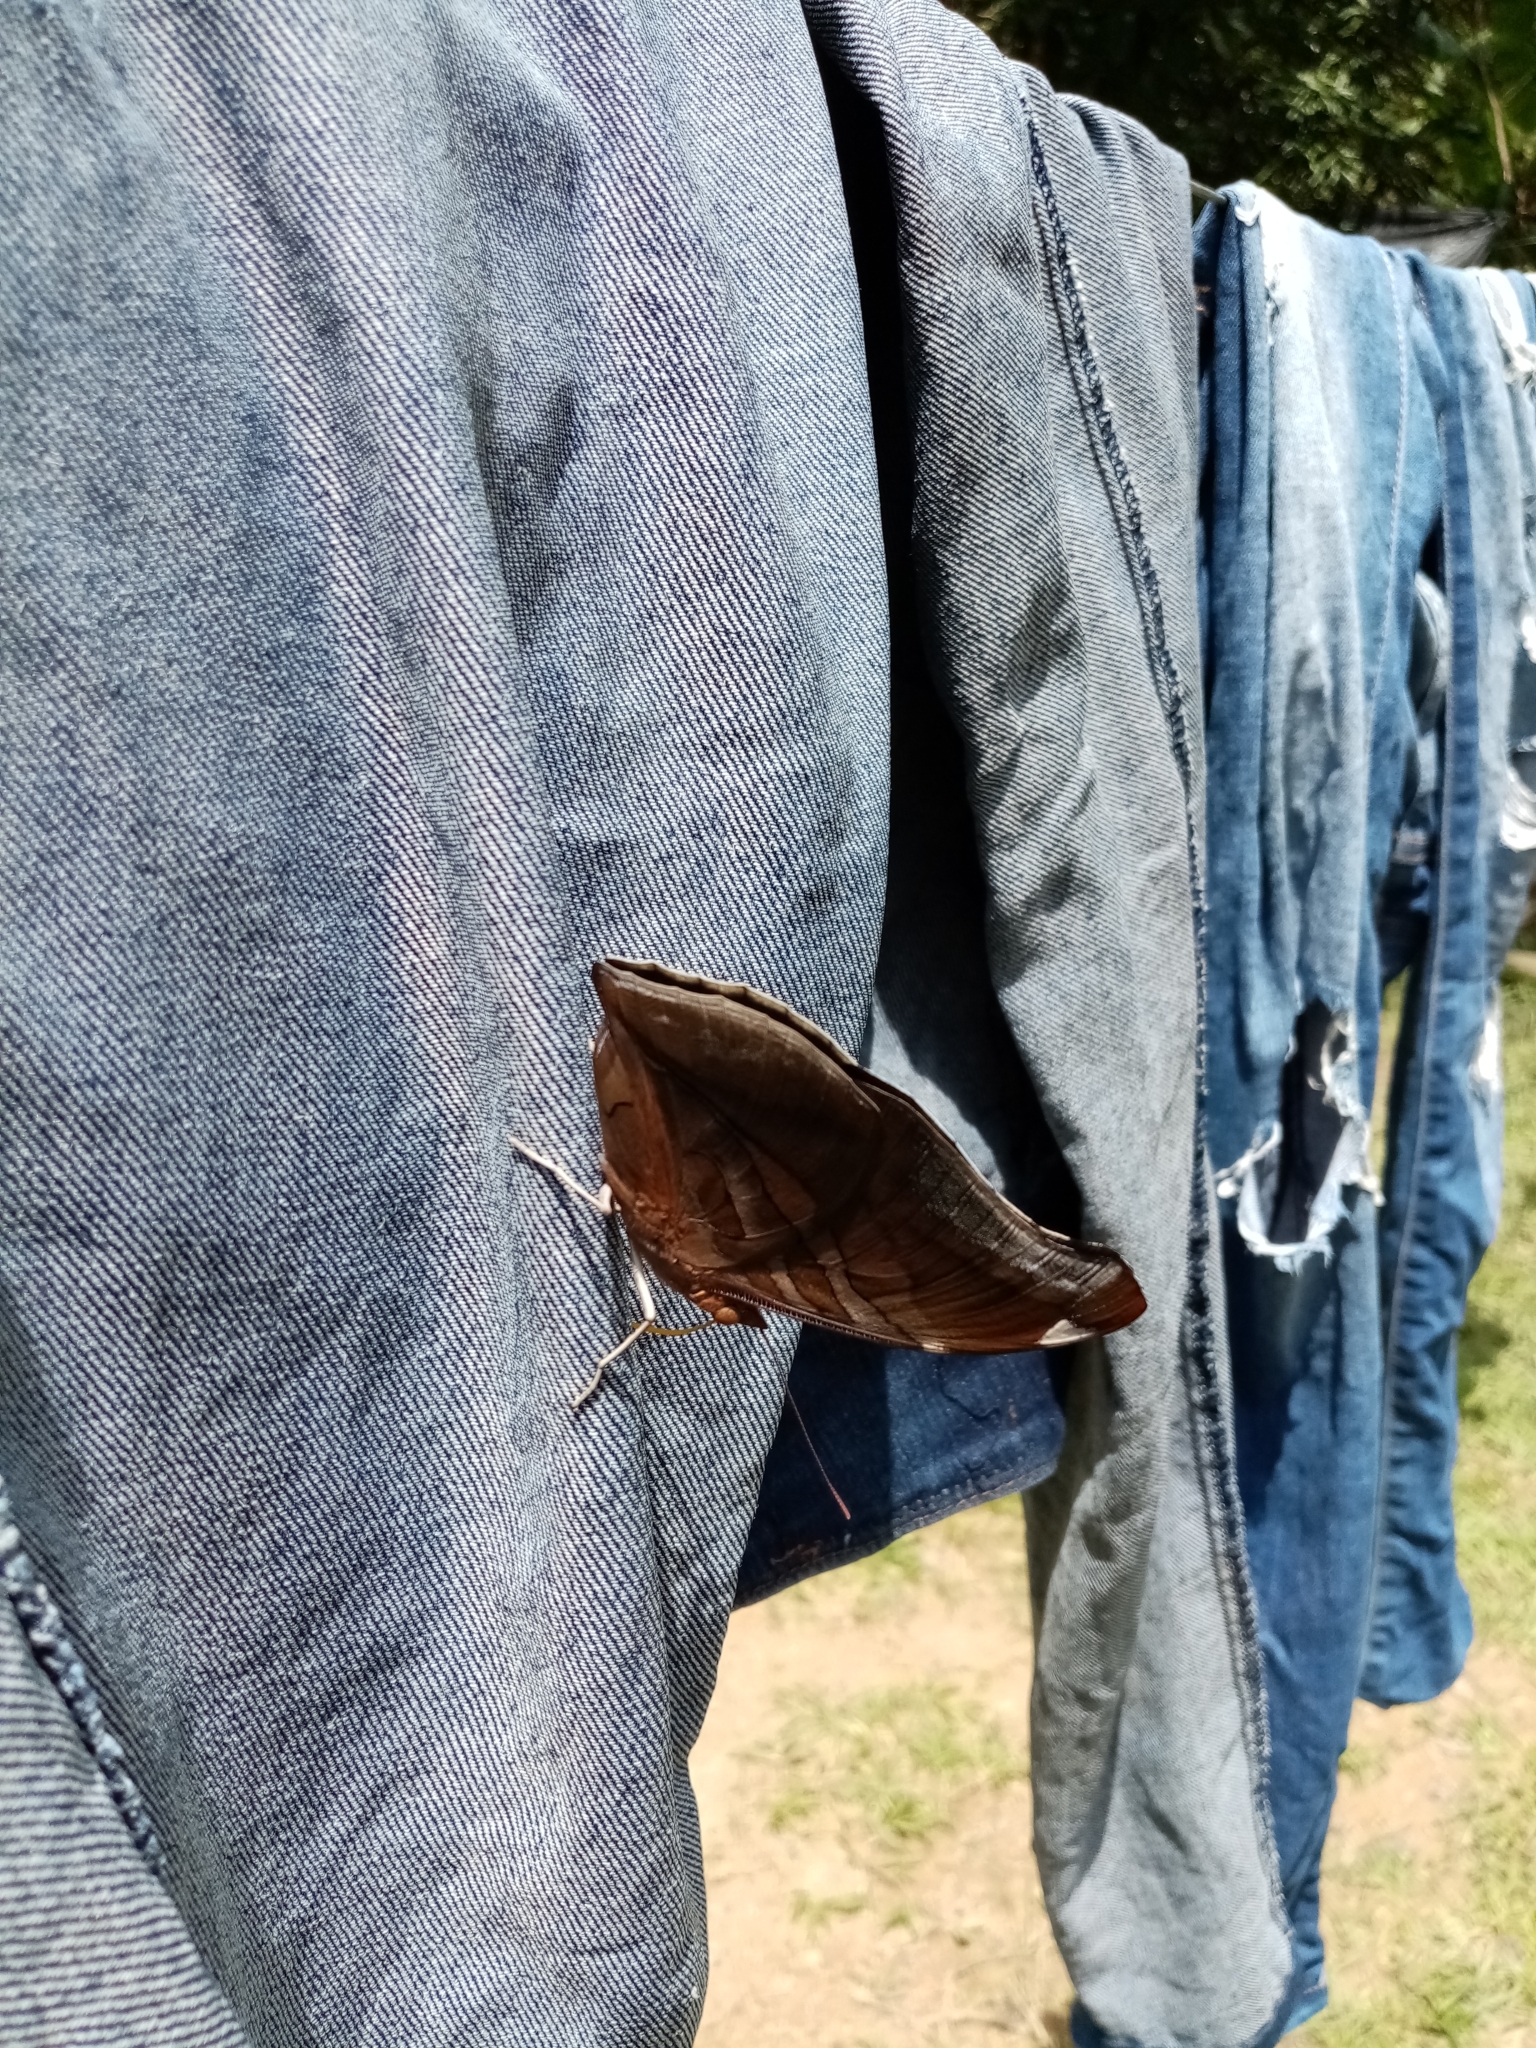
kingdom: Animalia
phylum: Arthropoda
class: Insecta
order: Lepidoptera
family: Nymphalidae
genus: Historis
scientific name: Historis odius
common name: Orion cecropian
